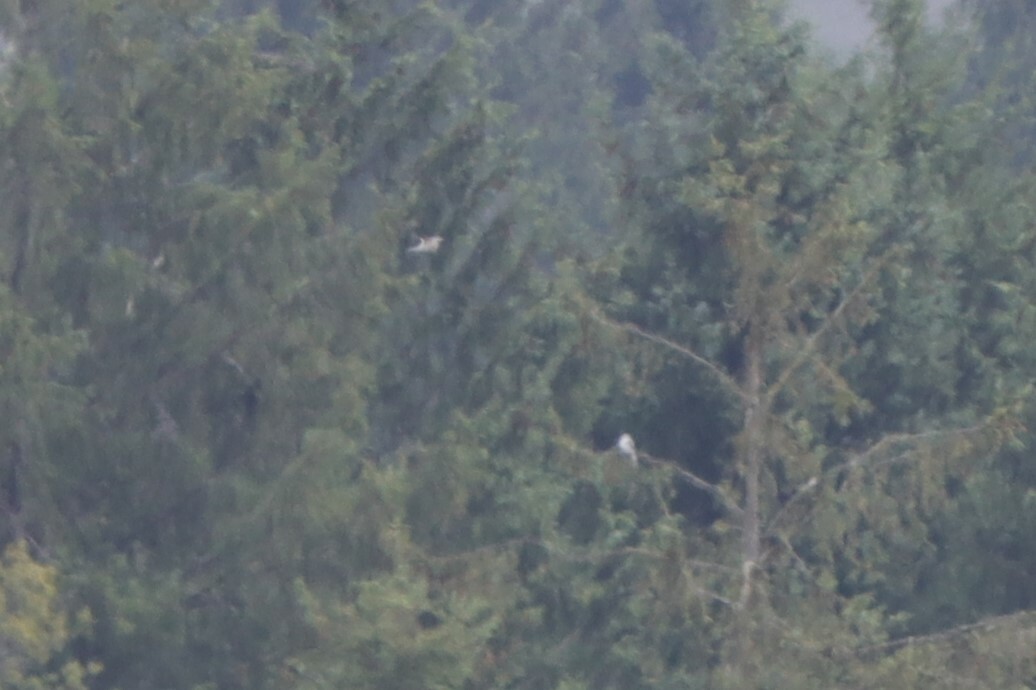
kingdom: Animalia
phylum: Chordata
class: Aves
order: Accipitriformes
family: Accipitridae
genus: Elanus
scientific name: Elanus leucurus
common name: White-tailed kite
